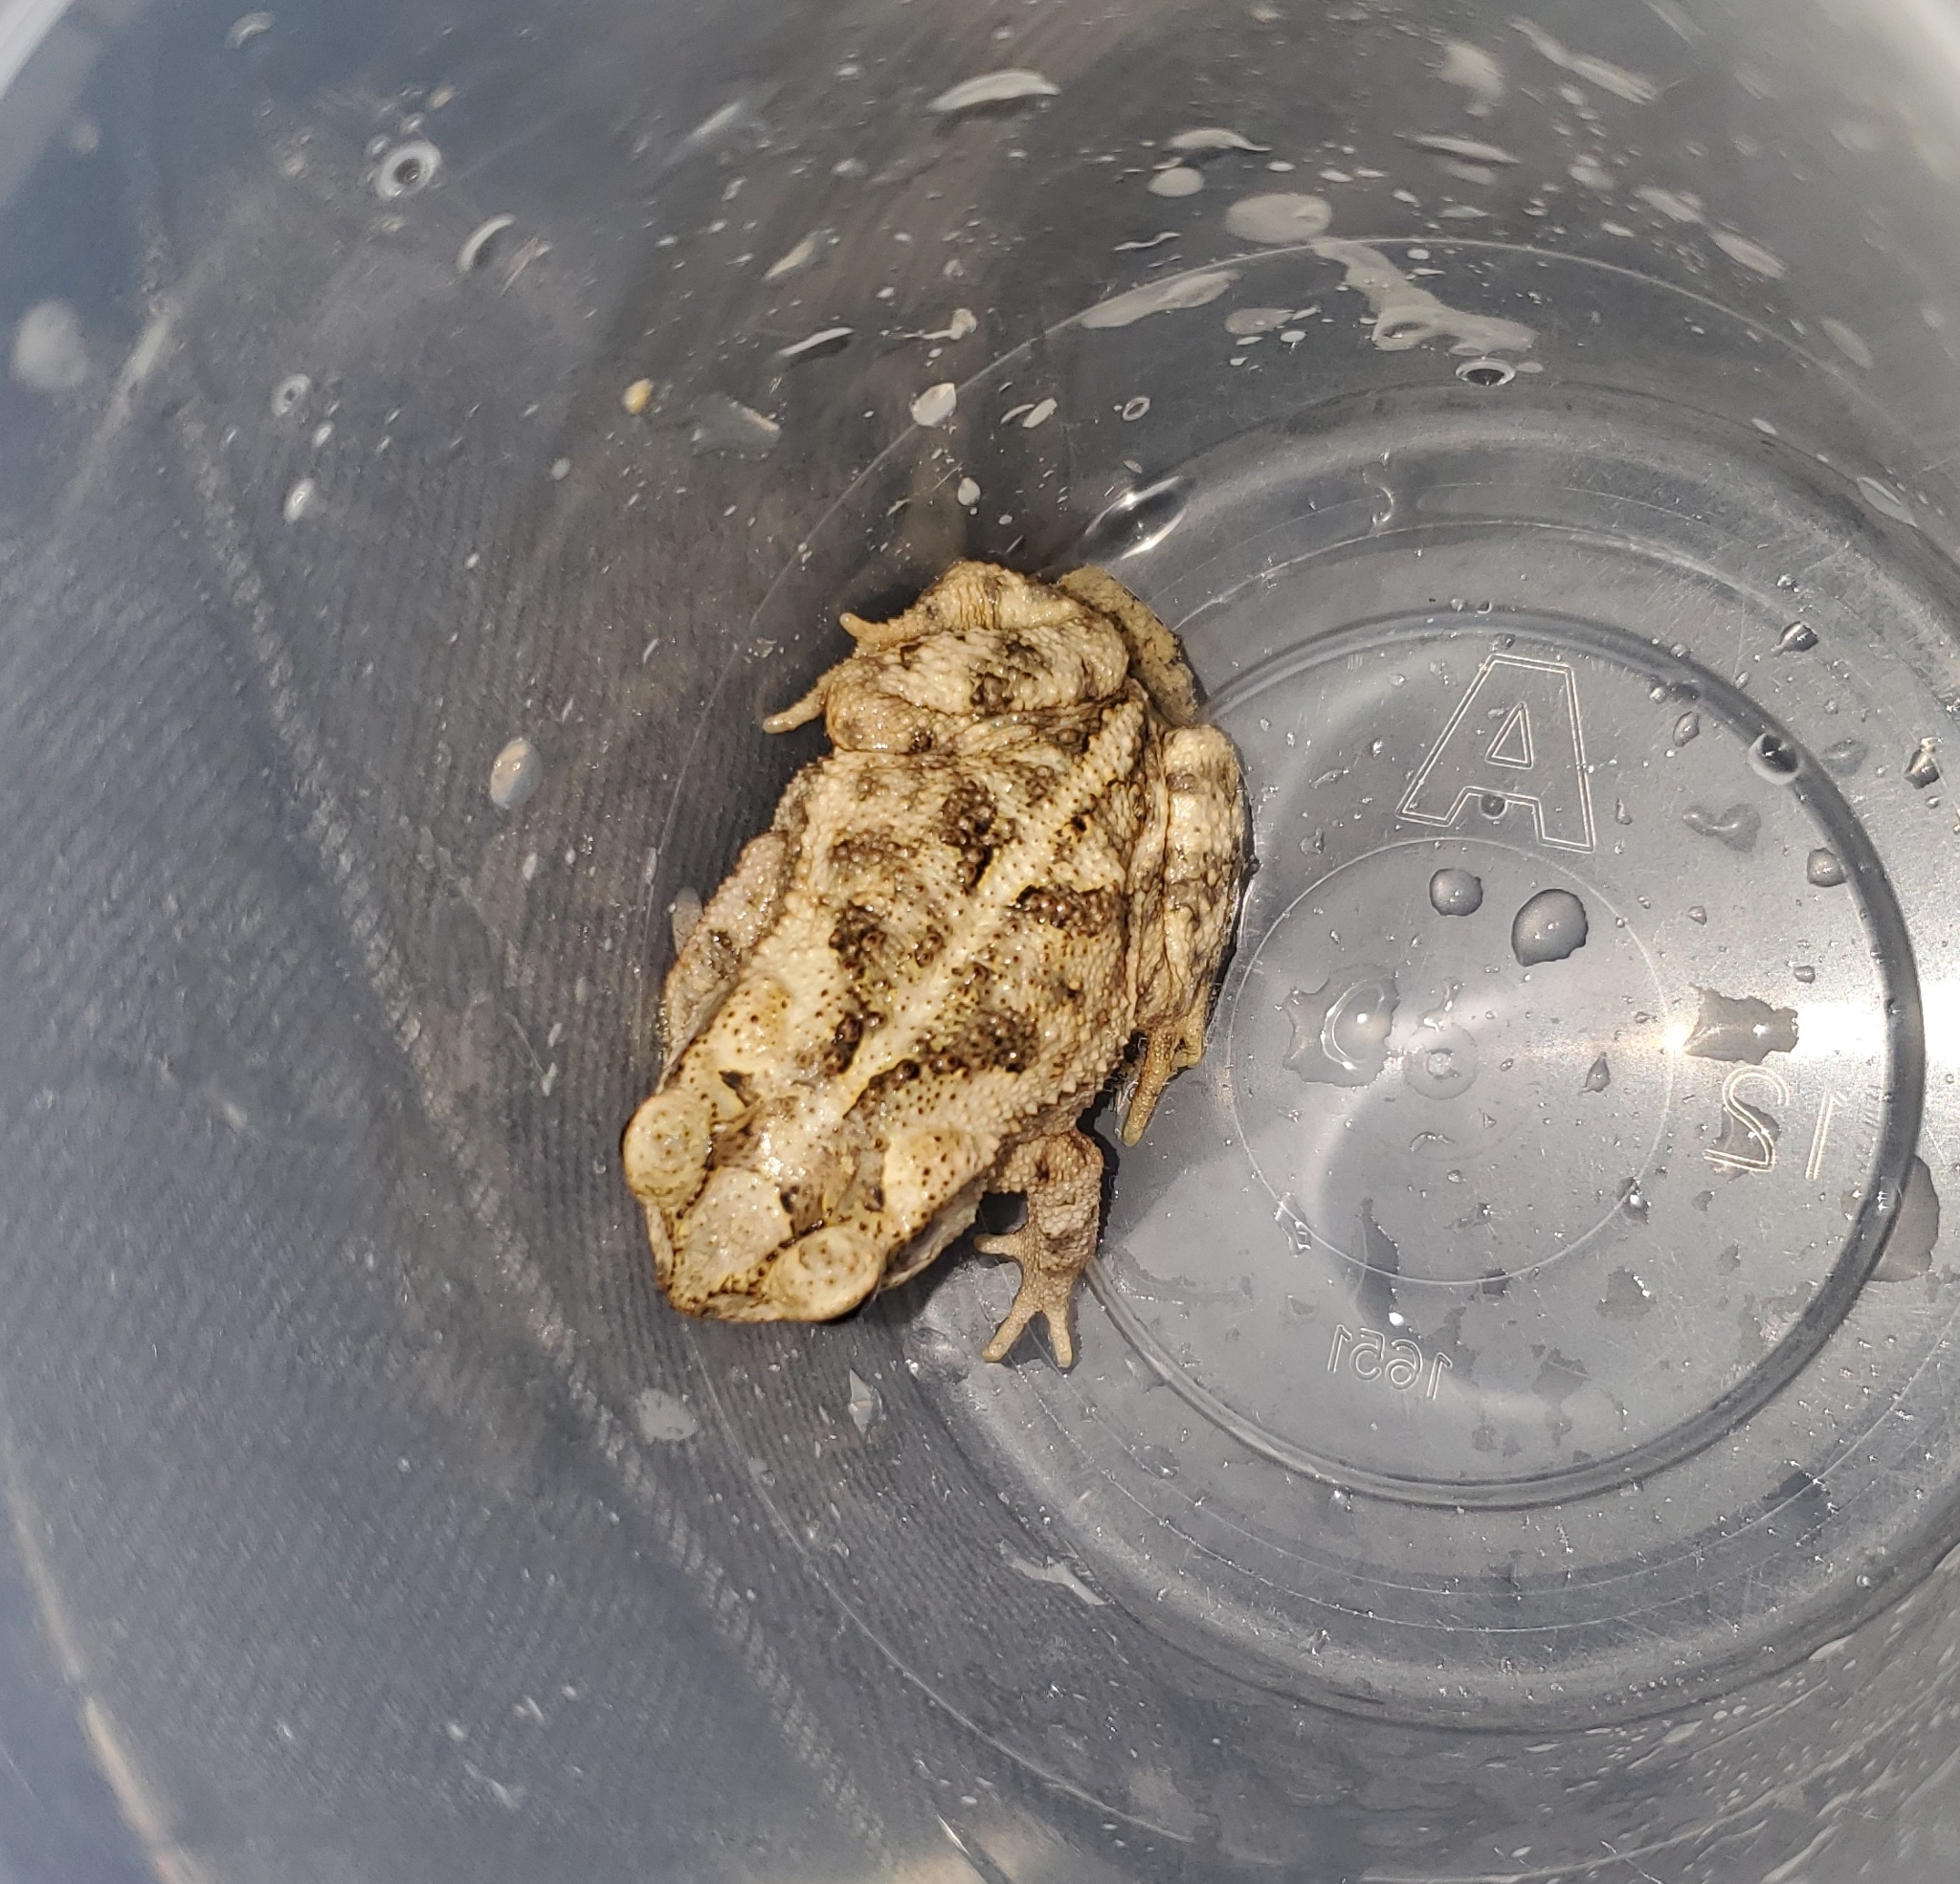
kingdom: Animalia
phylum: Chordata
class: Amphibia
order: Anura
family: Bufonidae
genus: Incilius
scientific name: Incilius nebulifer
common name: Gulf coast toad
